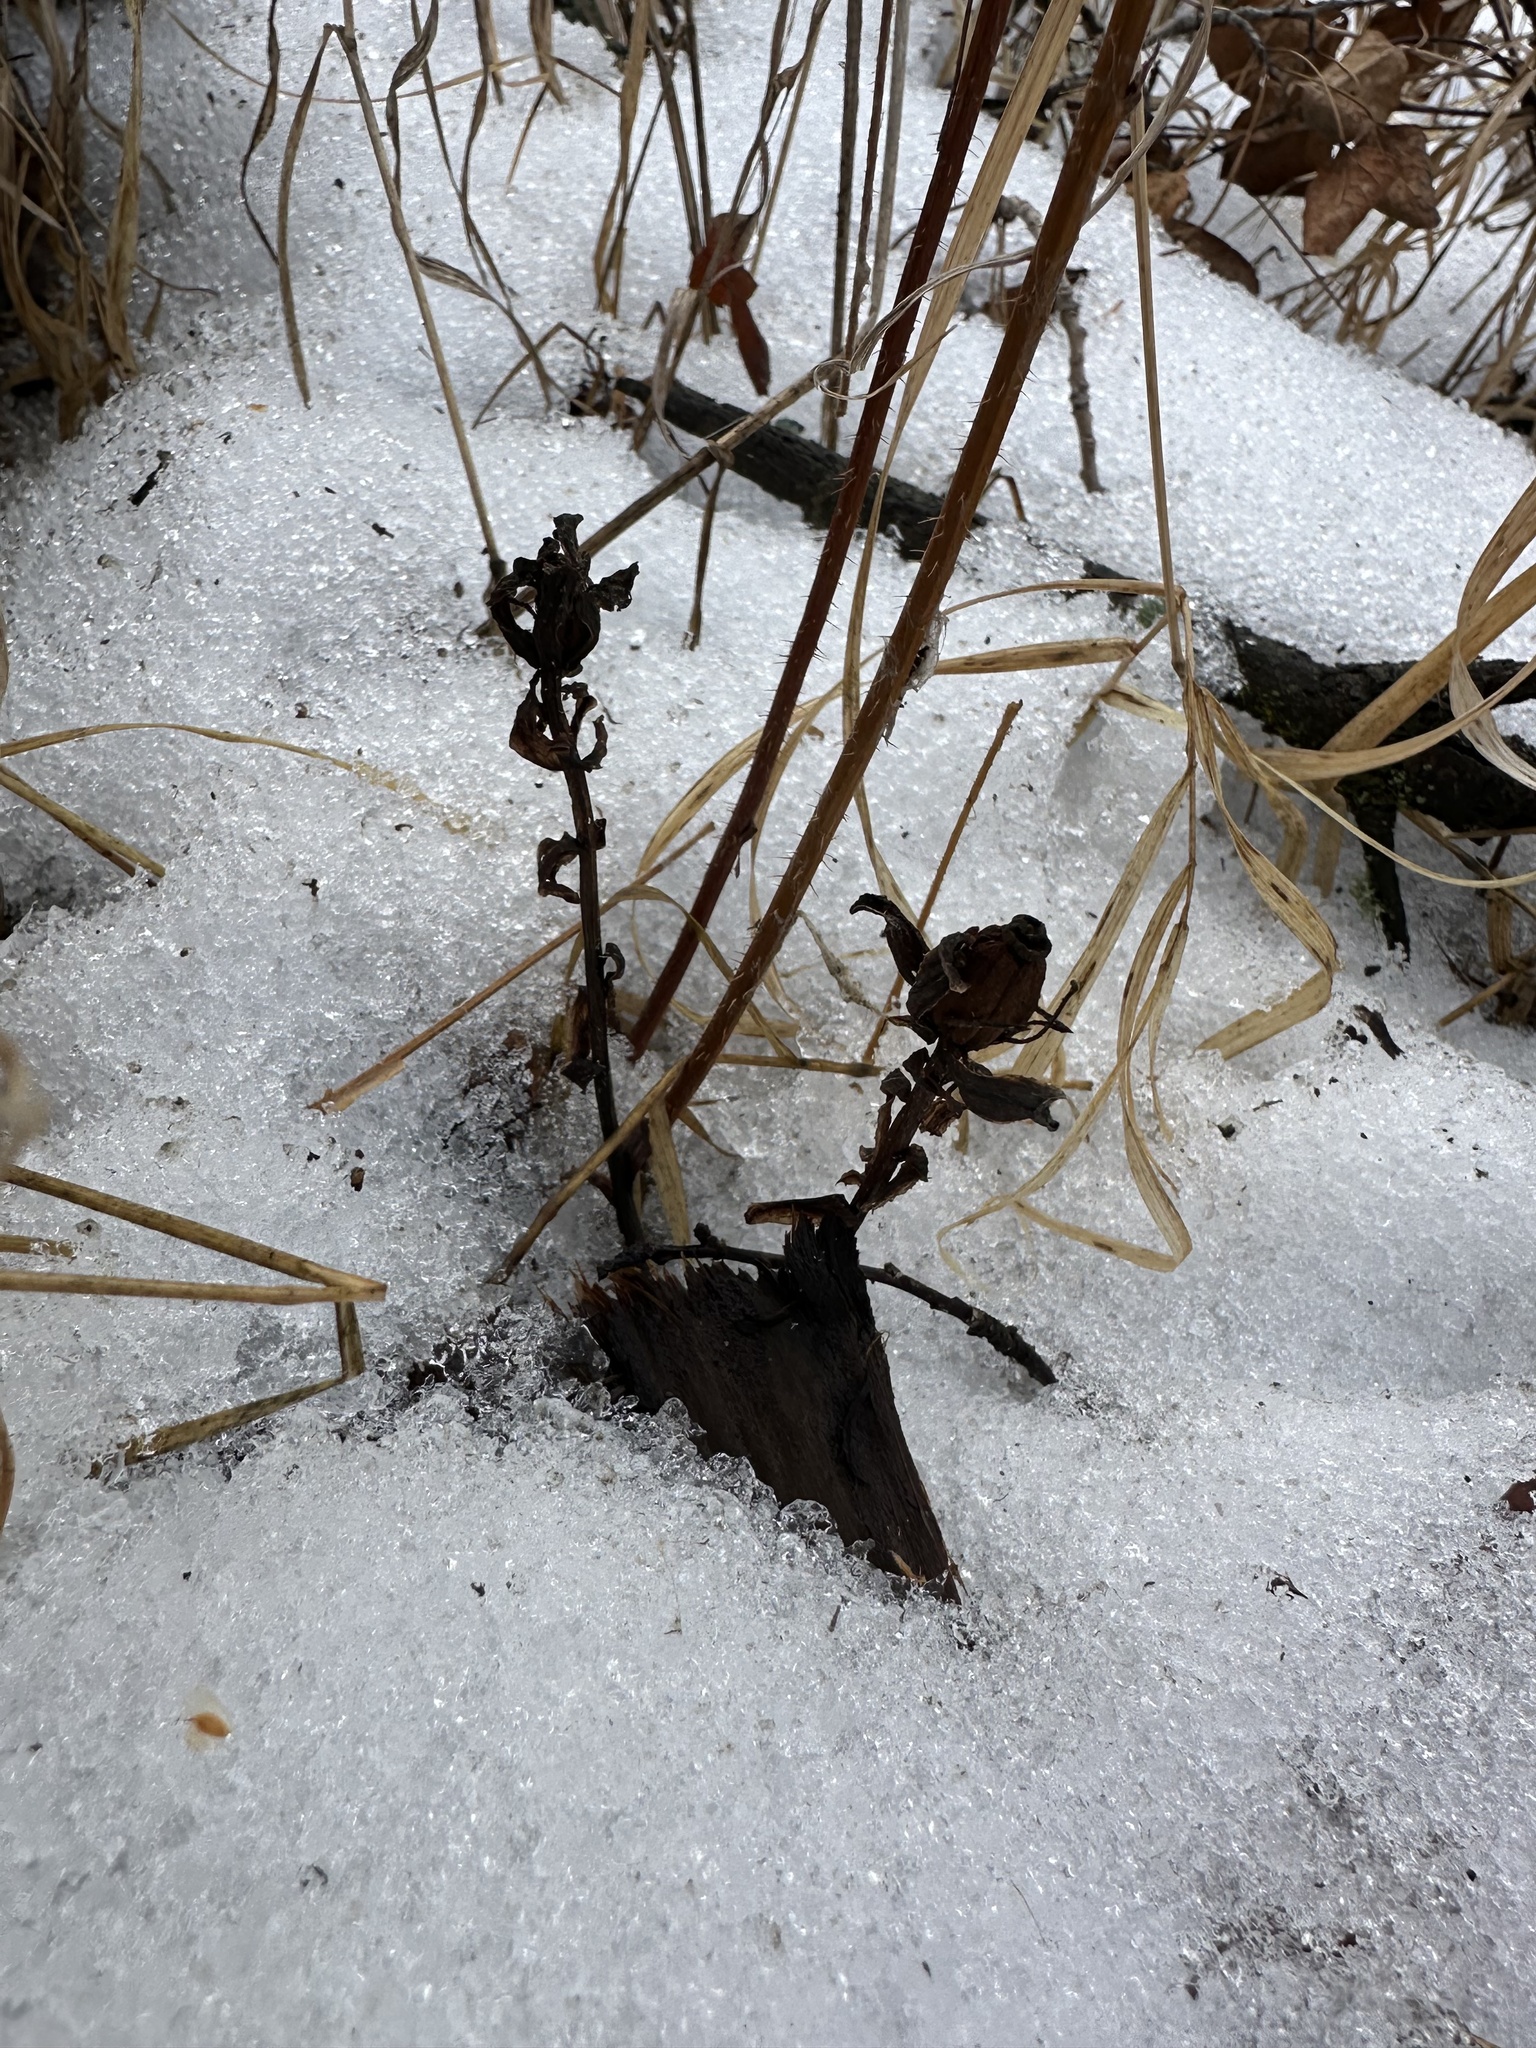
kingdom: Plantae
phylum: Tracheophyta
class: Magnoliopsida
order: Ericales
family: Ericaceae
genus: Monotropa
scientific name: Monotropa uniflora
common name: Convulsion root
